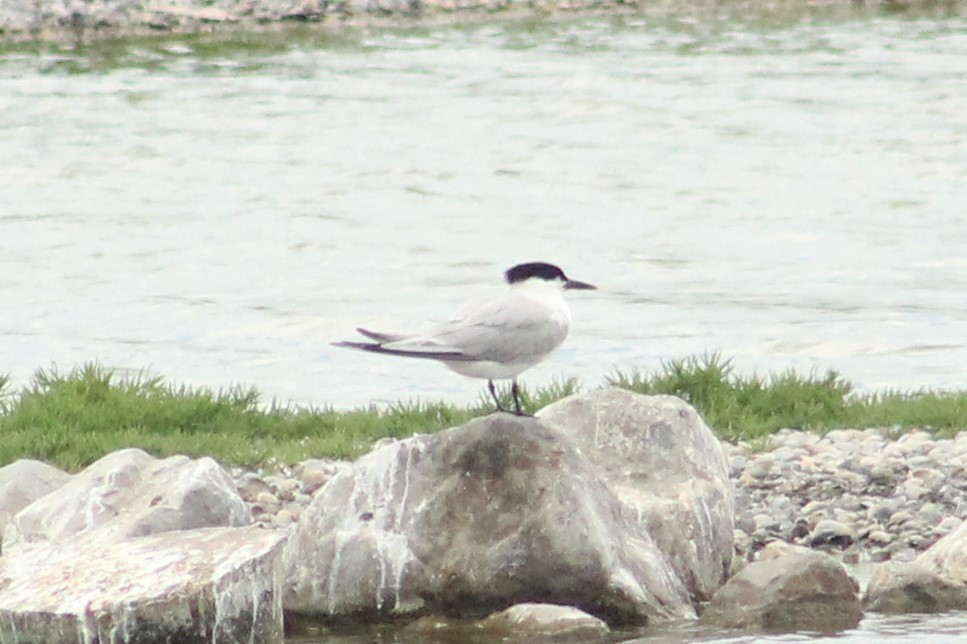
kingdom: Animalia
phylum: Chordata
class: Aves
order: Charadriiformes
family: Laridae
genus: Thalasseus
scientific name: Thalasseus sandvicensis
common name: Sandwich tern
